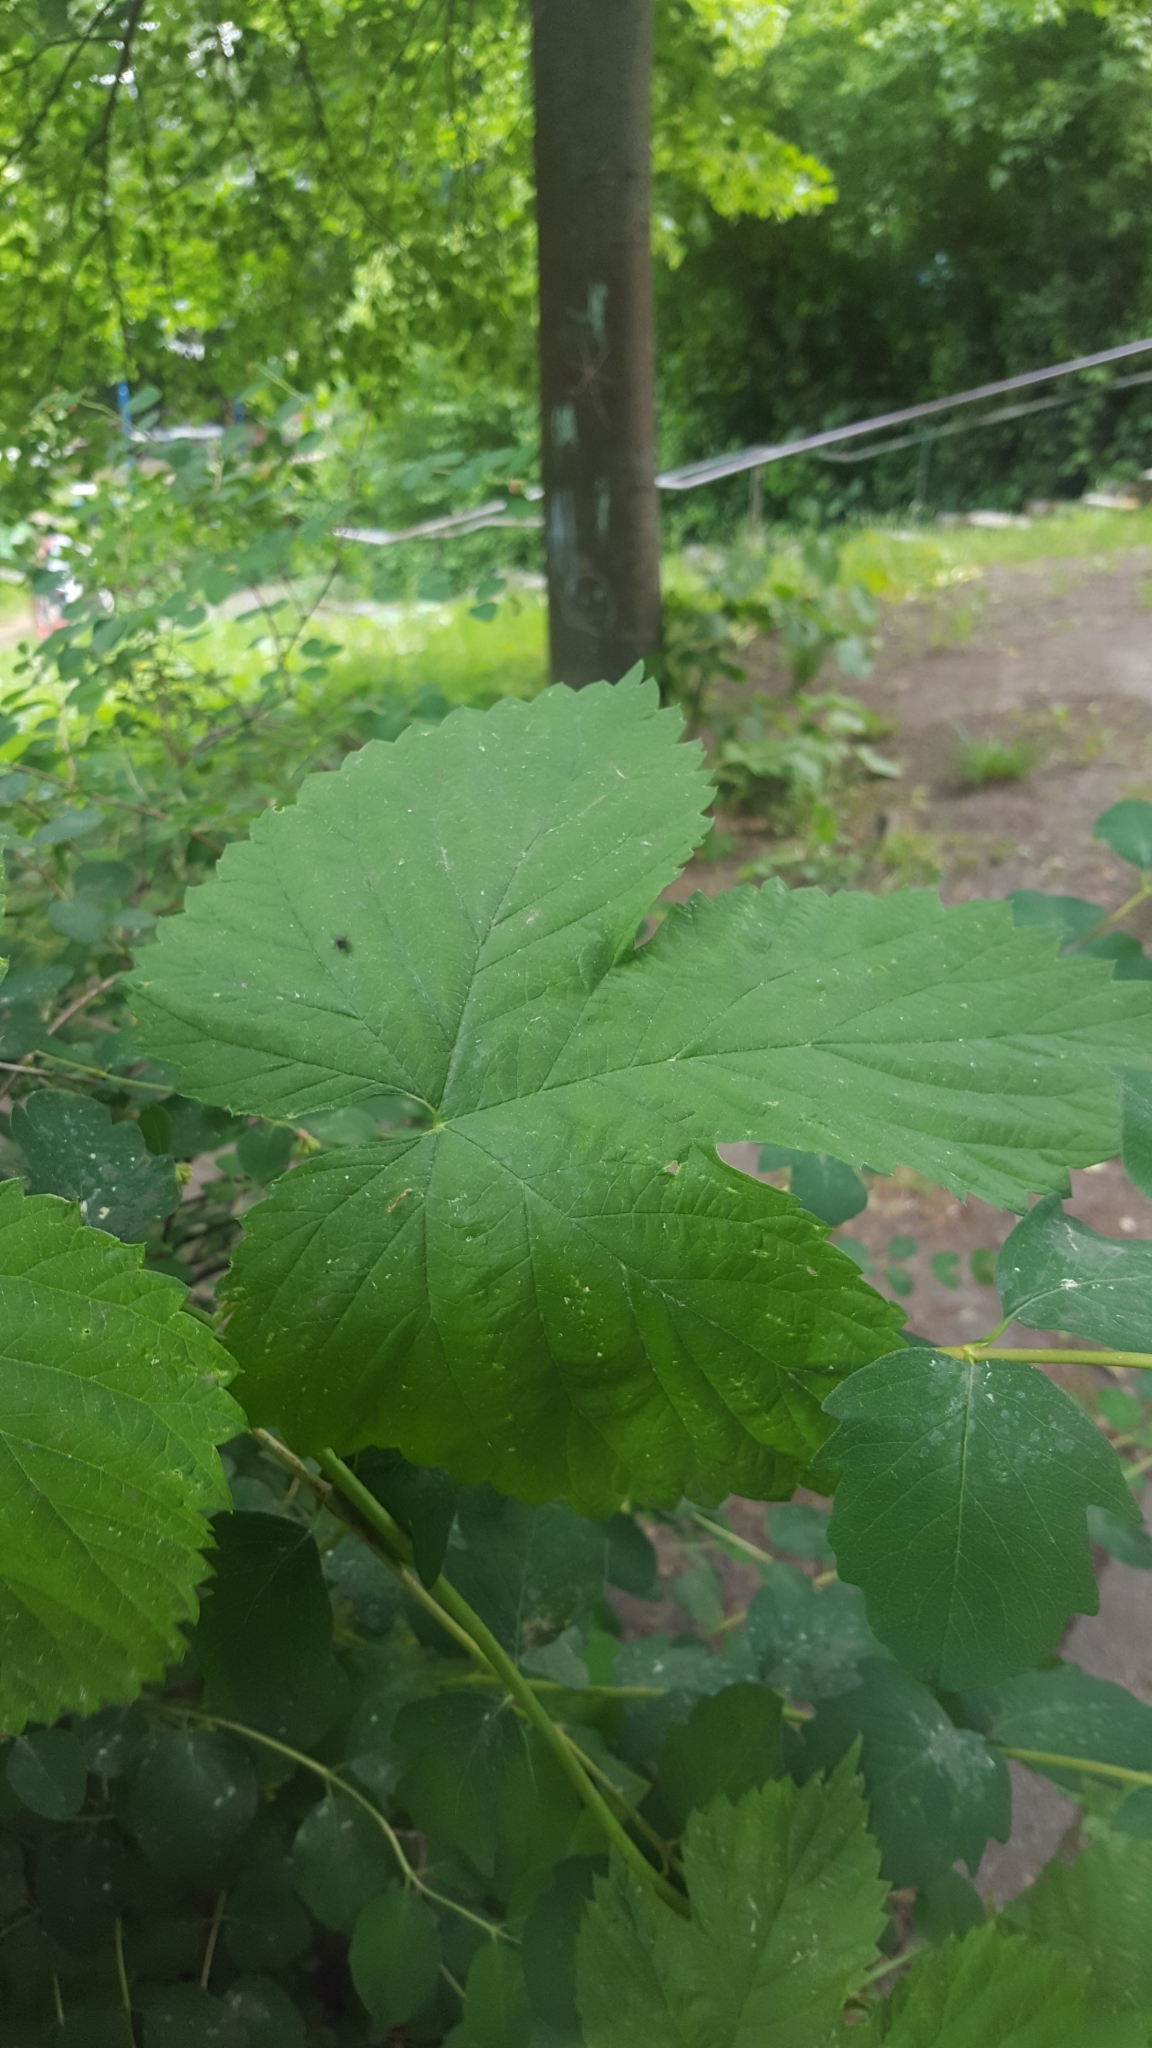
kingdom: Plantae
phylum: Tracheophyta
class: Magnoliopsida
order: Rosales
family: Cannabaceae
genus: Humulus
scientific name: Humulus lupulus
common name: Hop
